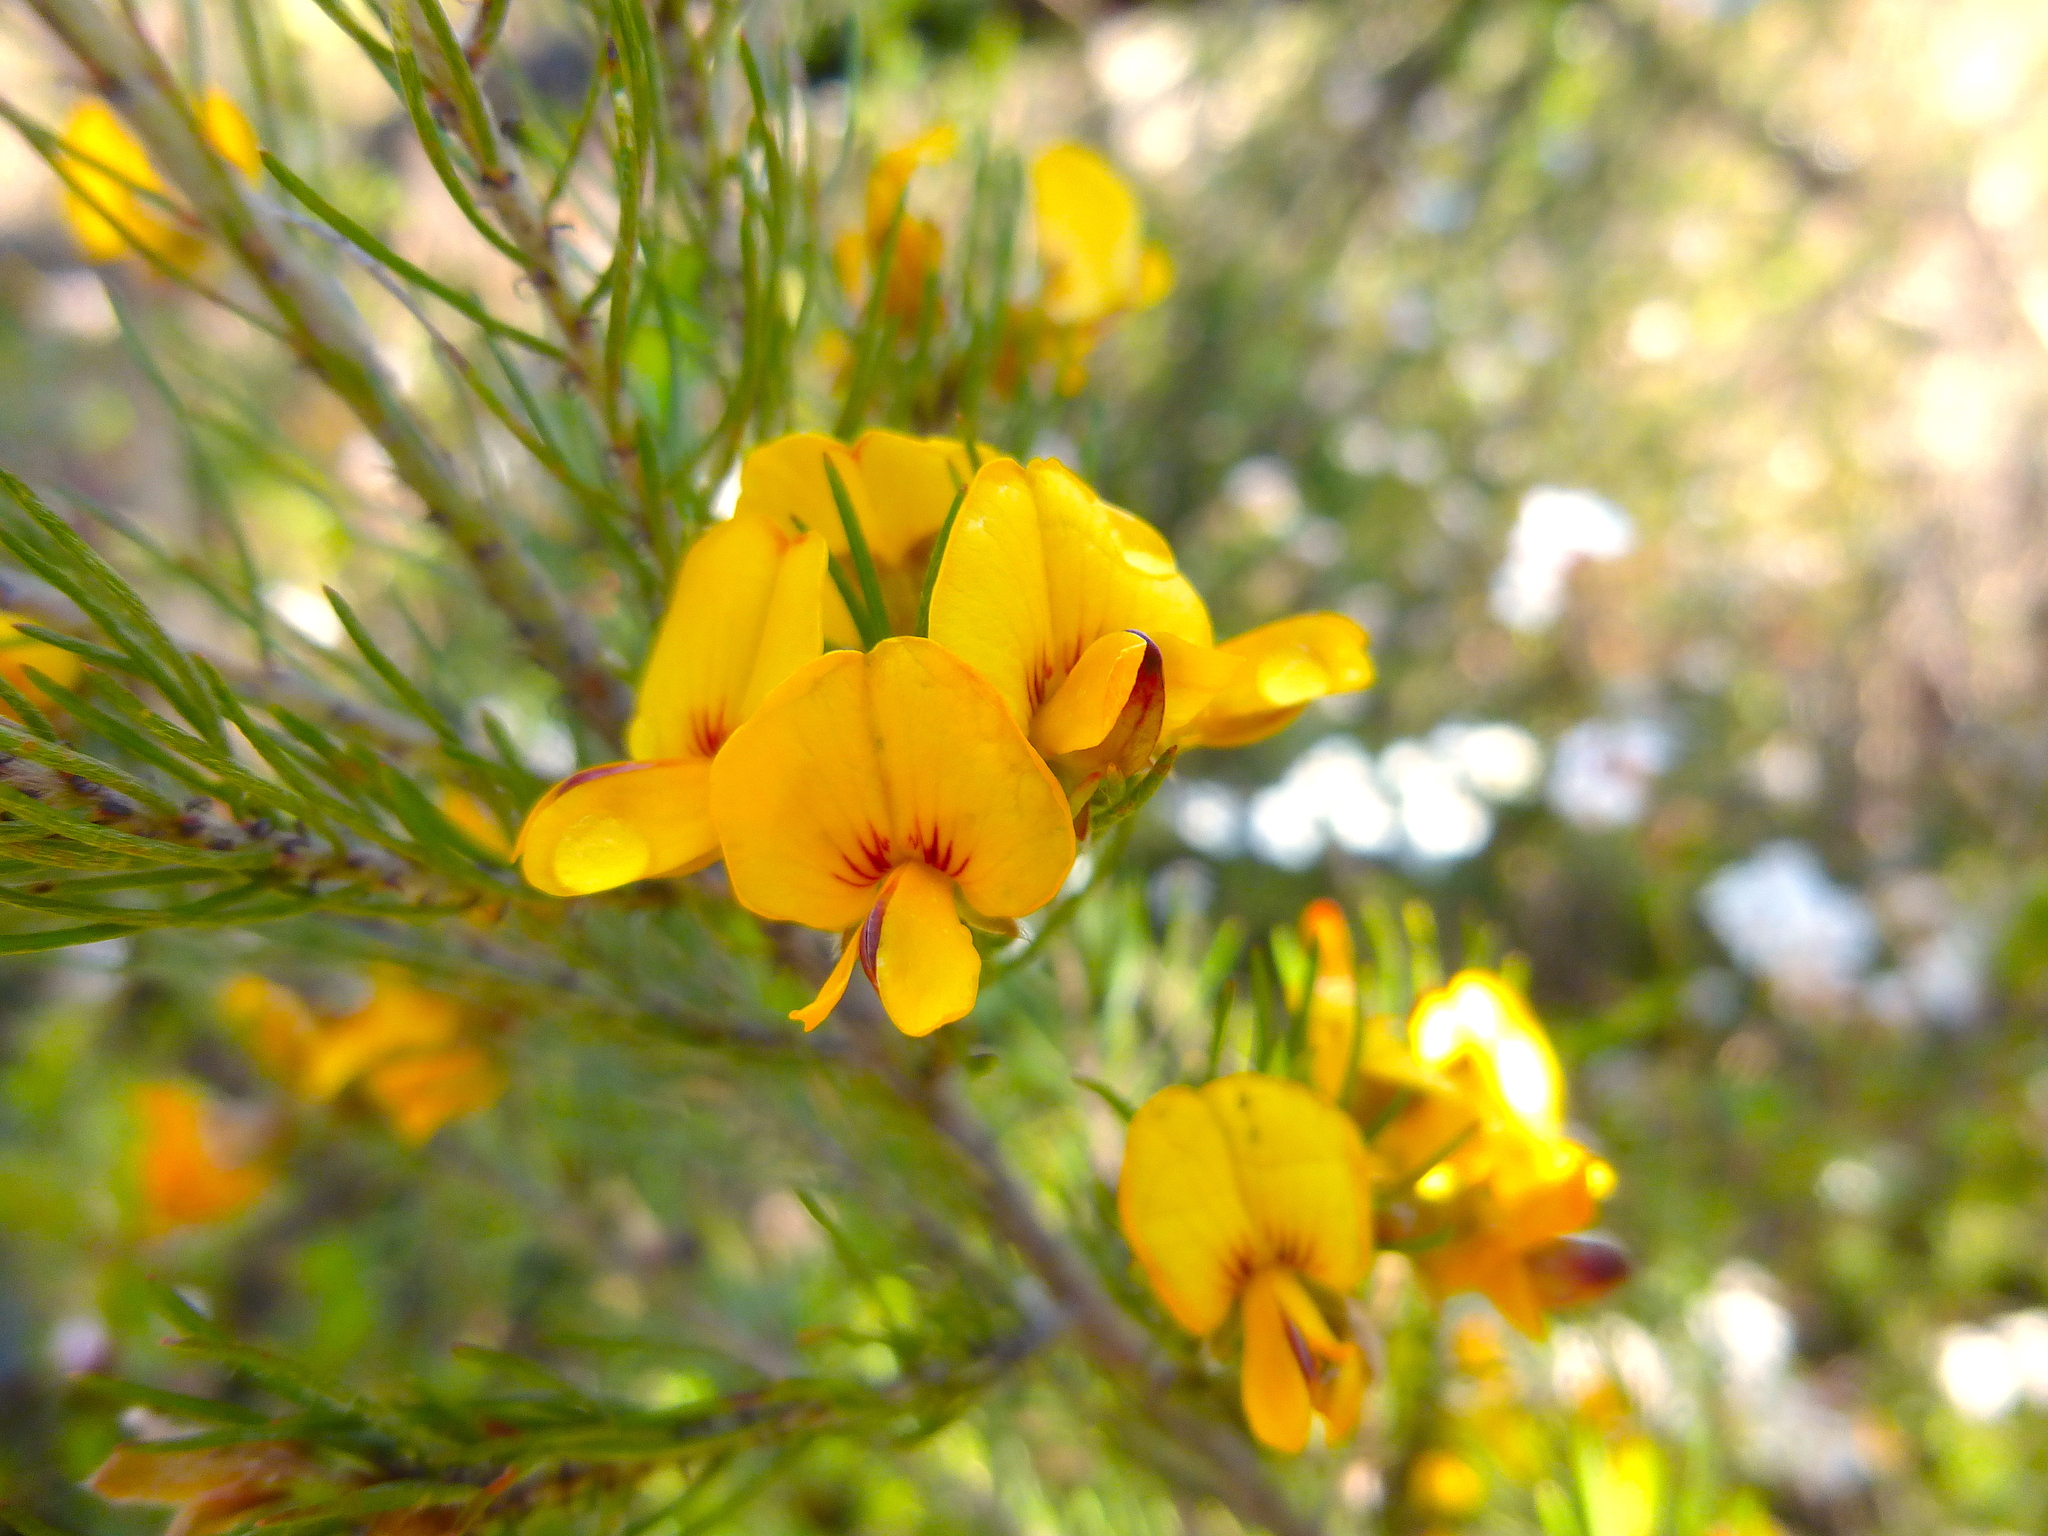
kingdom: Plantae
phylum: Tracheophyta
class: Magnoliopsida
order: Fabales
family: Fabaceae
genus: Pultenaea
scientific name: Pultenaea mollis
